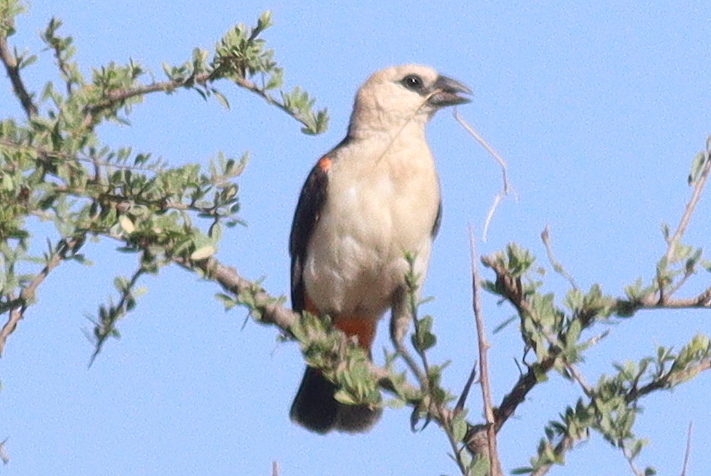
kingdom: Animalia
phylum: Chordata
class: Aves
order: Passeriformes
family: Ploceidae
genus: Dinemellia
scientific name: Dinemellia dinemelli
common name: White-headed buffalo weaver
